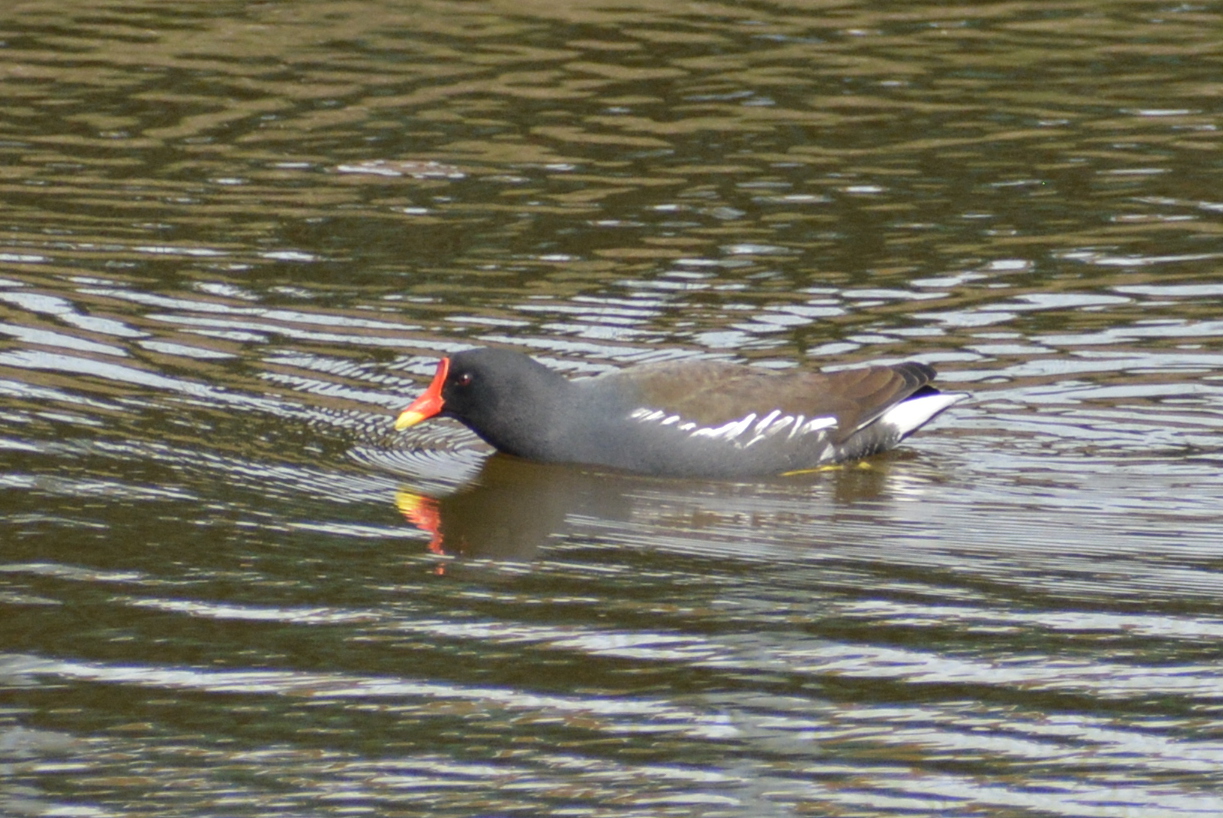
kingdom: Animalia
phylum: Chordata
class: Aves
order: Gruiformes
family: Rallidae
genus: Gallinula
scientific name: Gallinula chloropus
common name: Common moorhen
